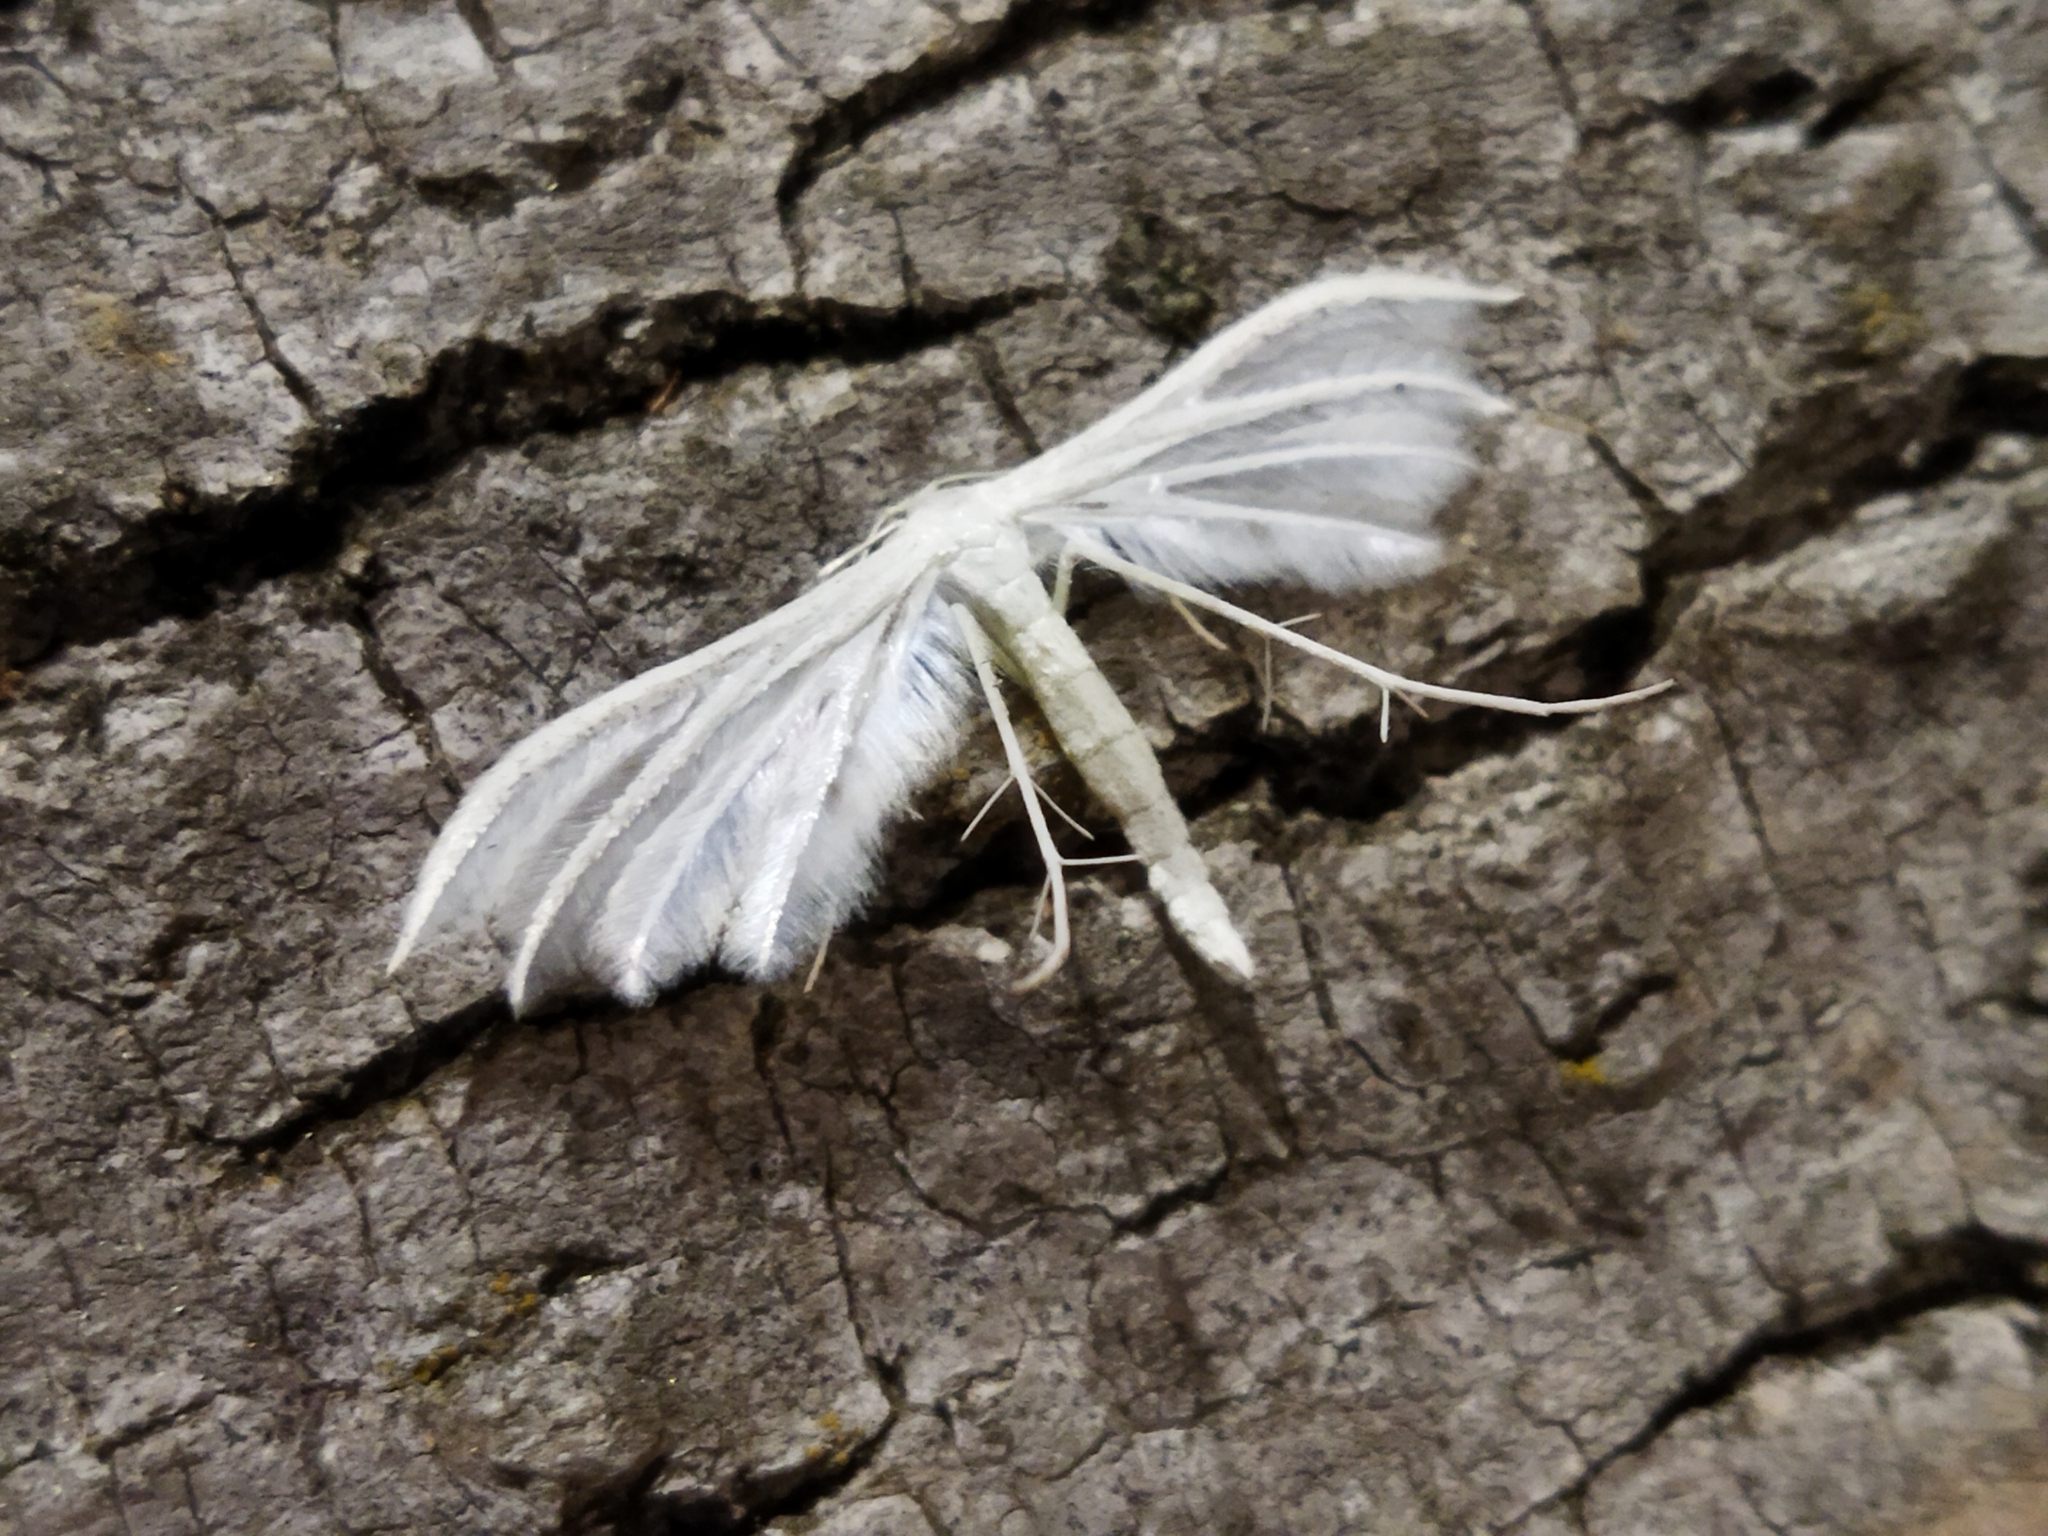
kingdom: Animalia
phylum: Arthropoda
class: Insecta
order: Lepidoptera
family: Pterophoridae
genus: Pterophorus
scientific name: Pterophorus pentadactyla
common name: White plume moth
